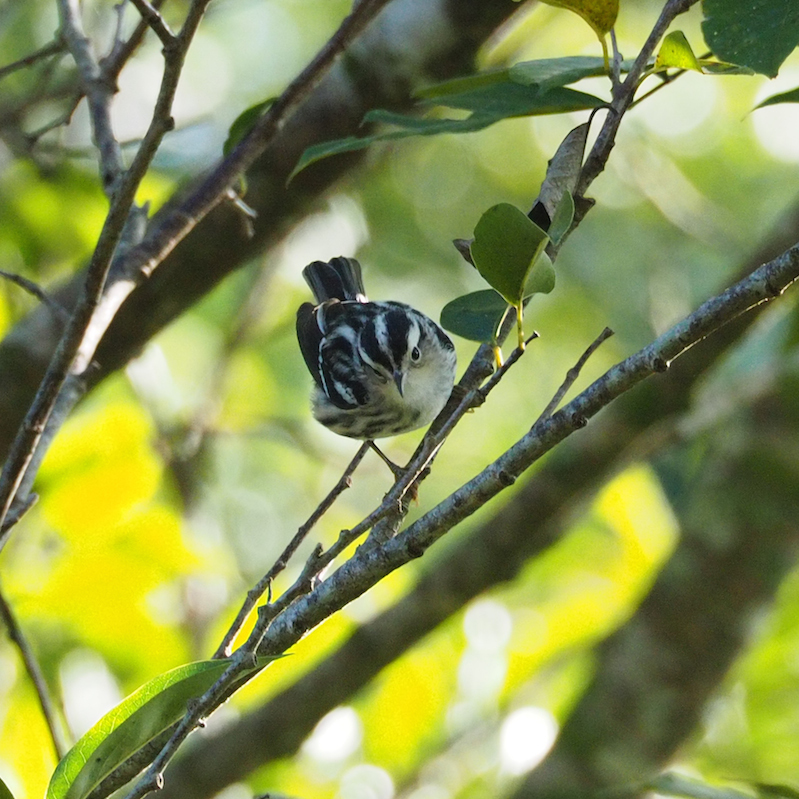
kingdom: Animalia
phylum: Chordata
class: Aves
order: Passeriformes
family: Parulidae
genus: Mniotilta
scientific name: Mniotilta varia
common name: Black-and-white warbler
